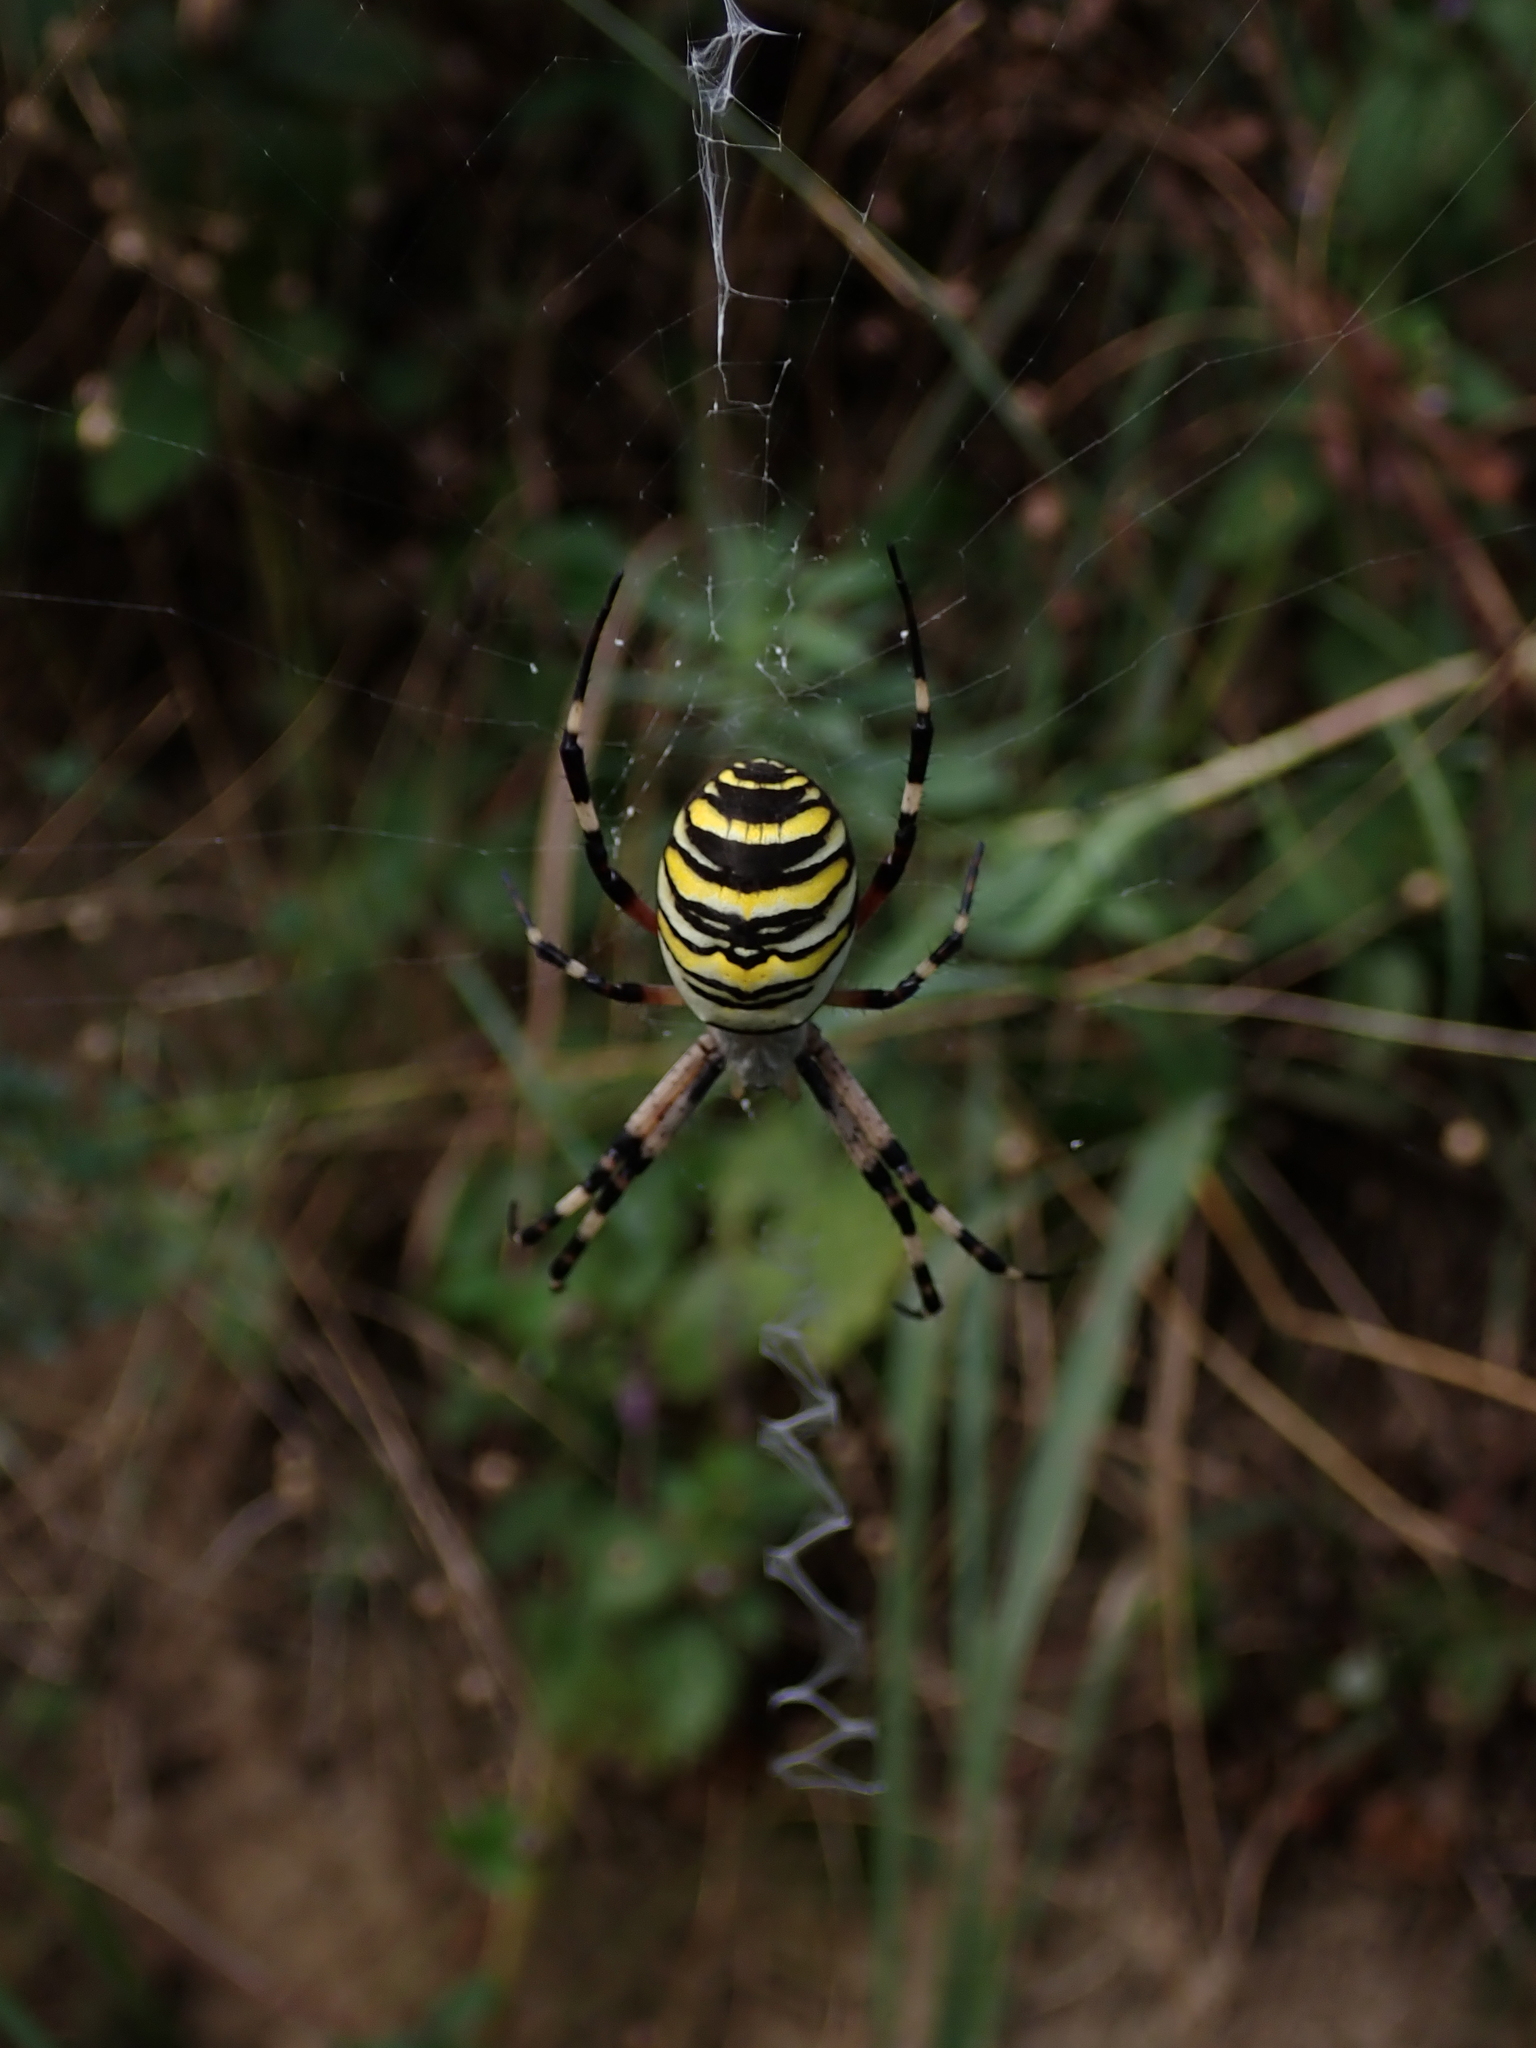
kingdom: Animalia
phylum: Arthropoda
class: Arachnida
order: Araneae
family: Araneidae
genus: Argiope
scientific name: Argiope bruennichi
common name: Wasp spider
